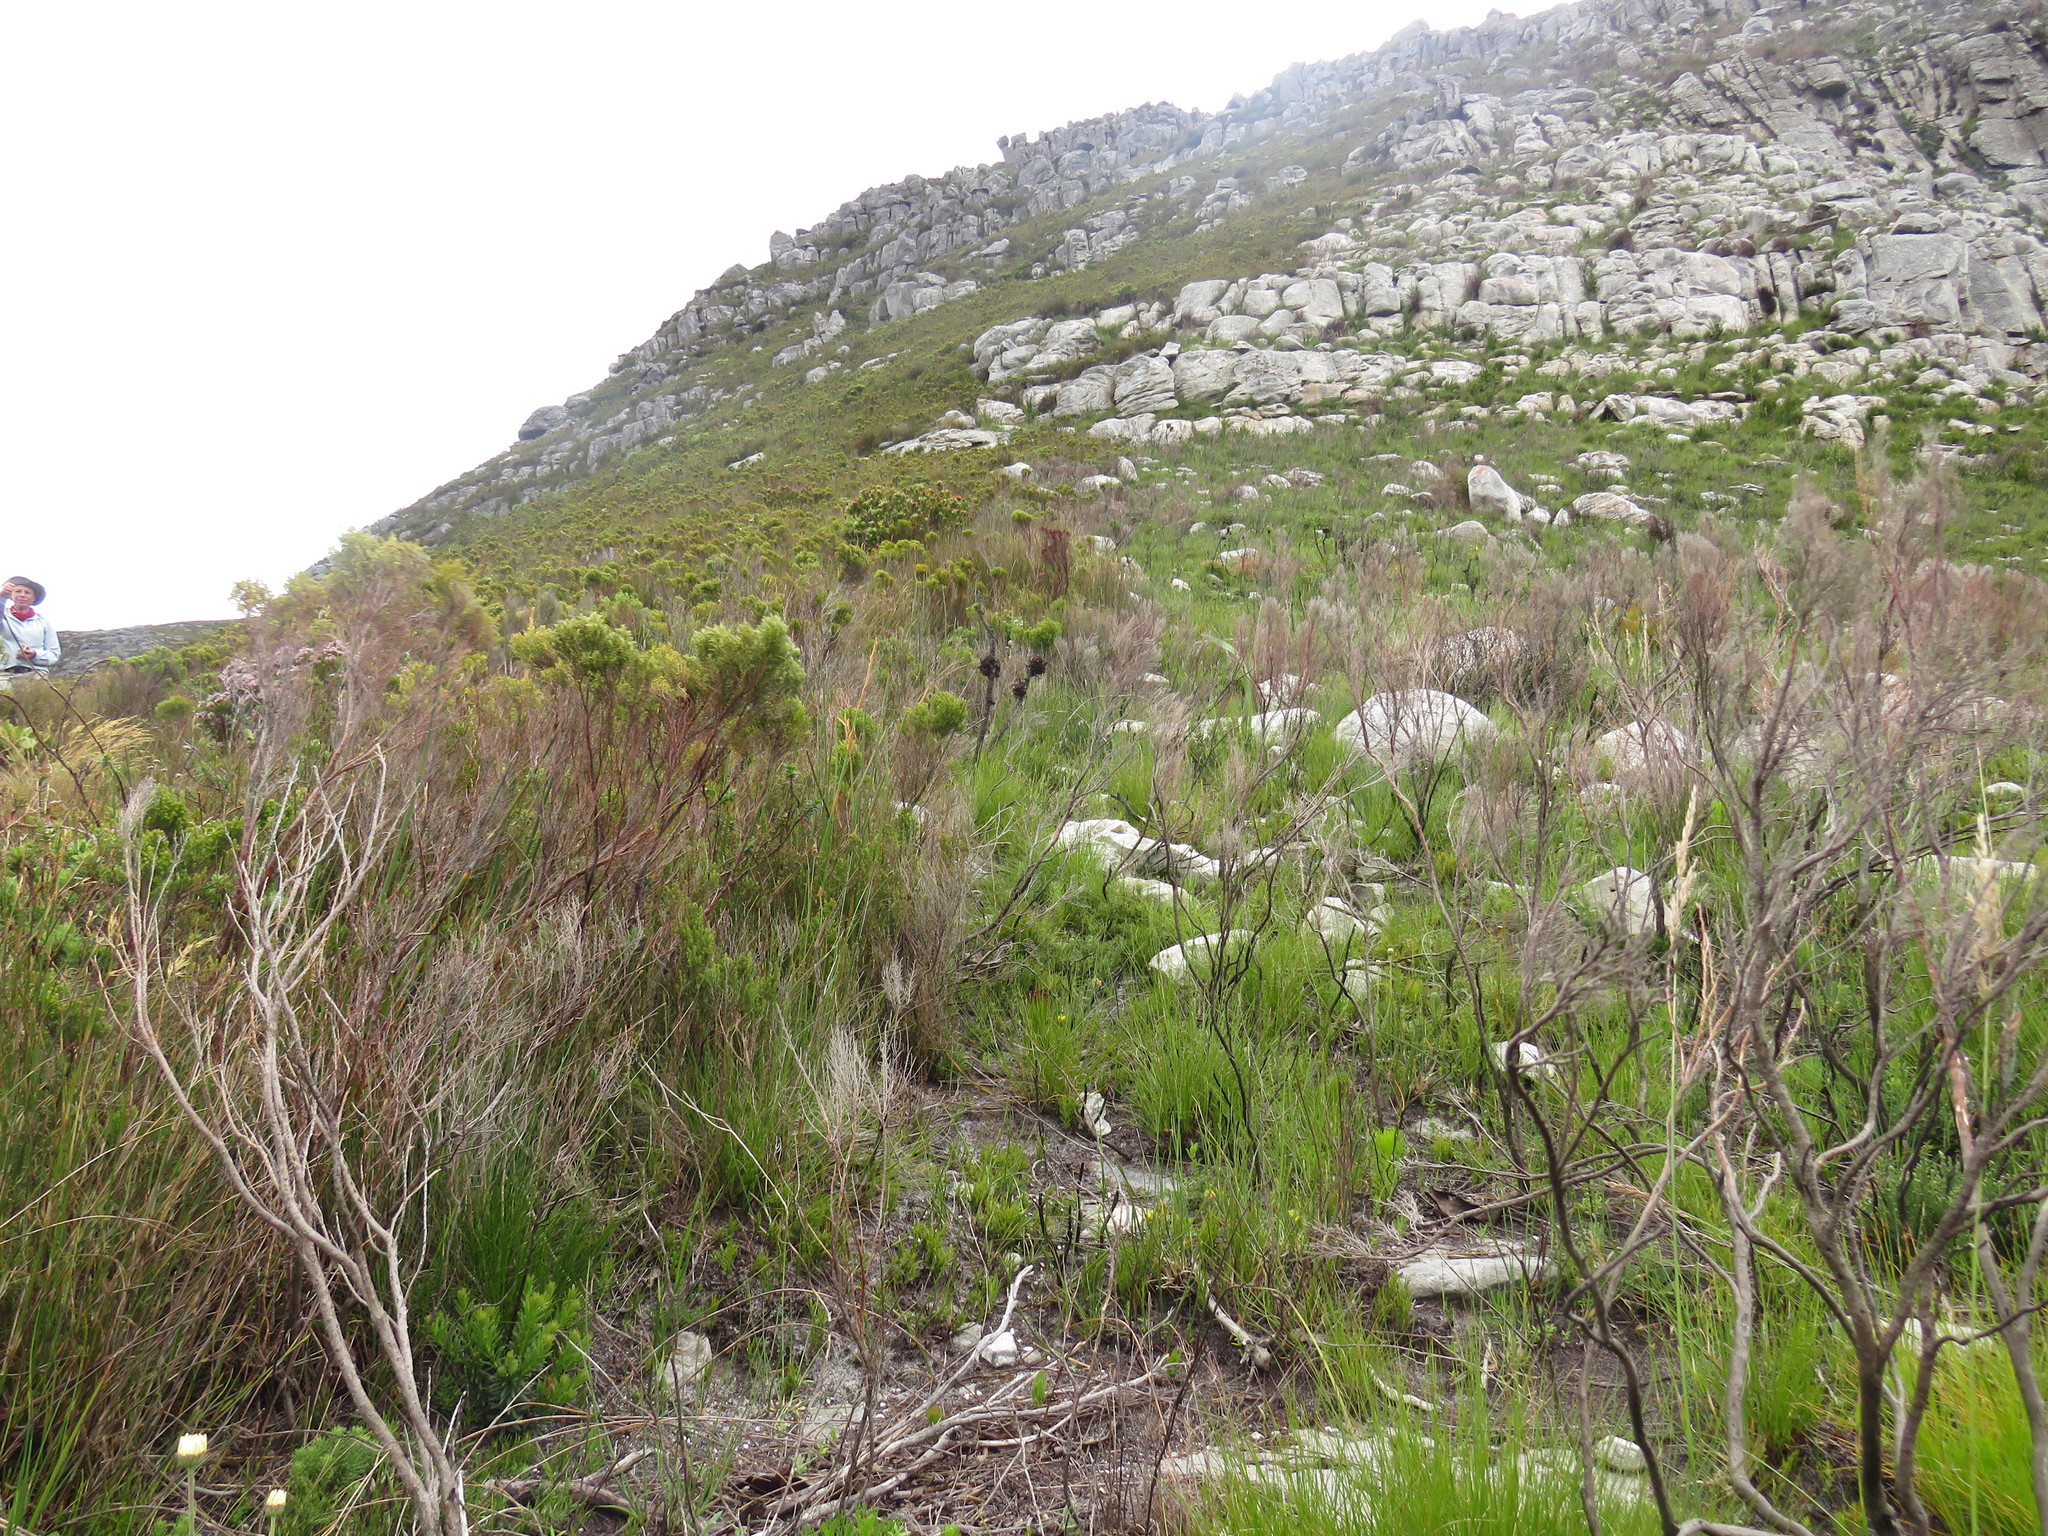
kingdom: Plantae
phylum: Tracheophyta
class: Magnoliopsida
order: Proteales
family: Proteaceae
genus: Leucospermum
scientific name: Leucospermum oleifolium
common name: Matches
